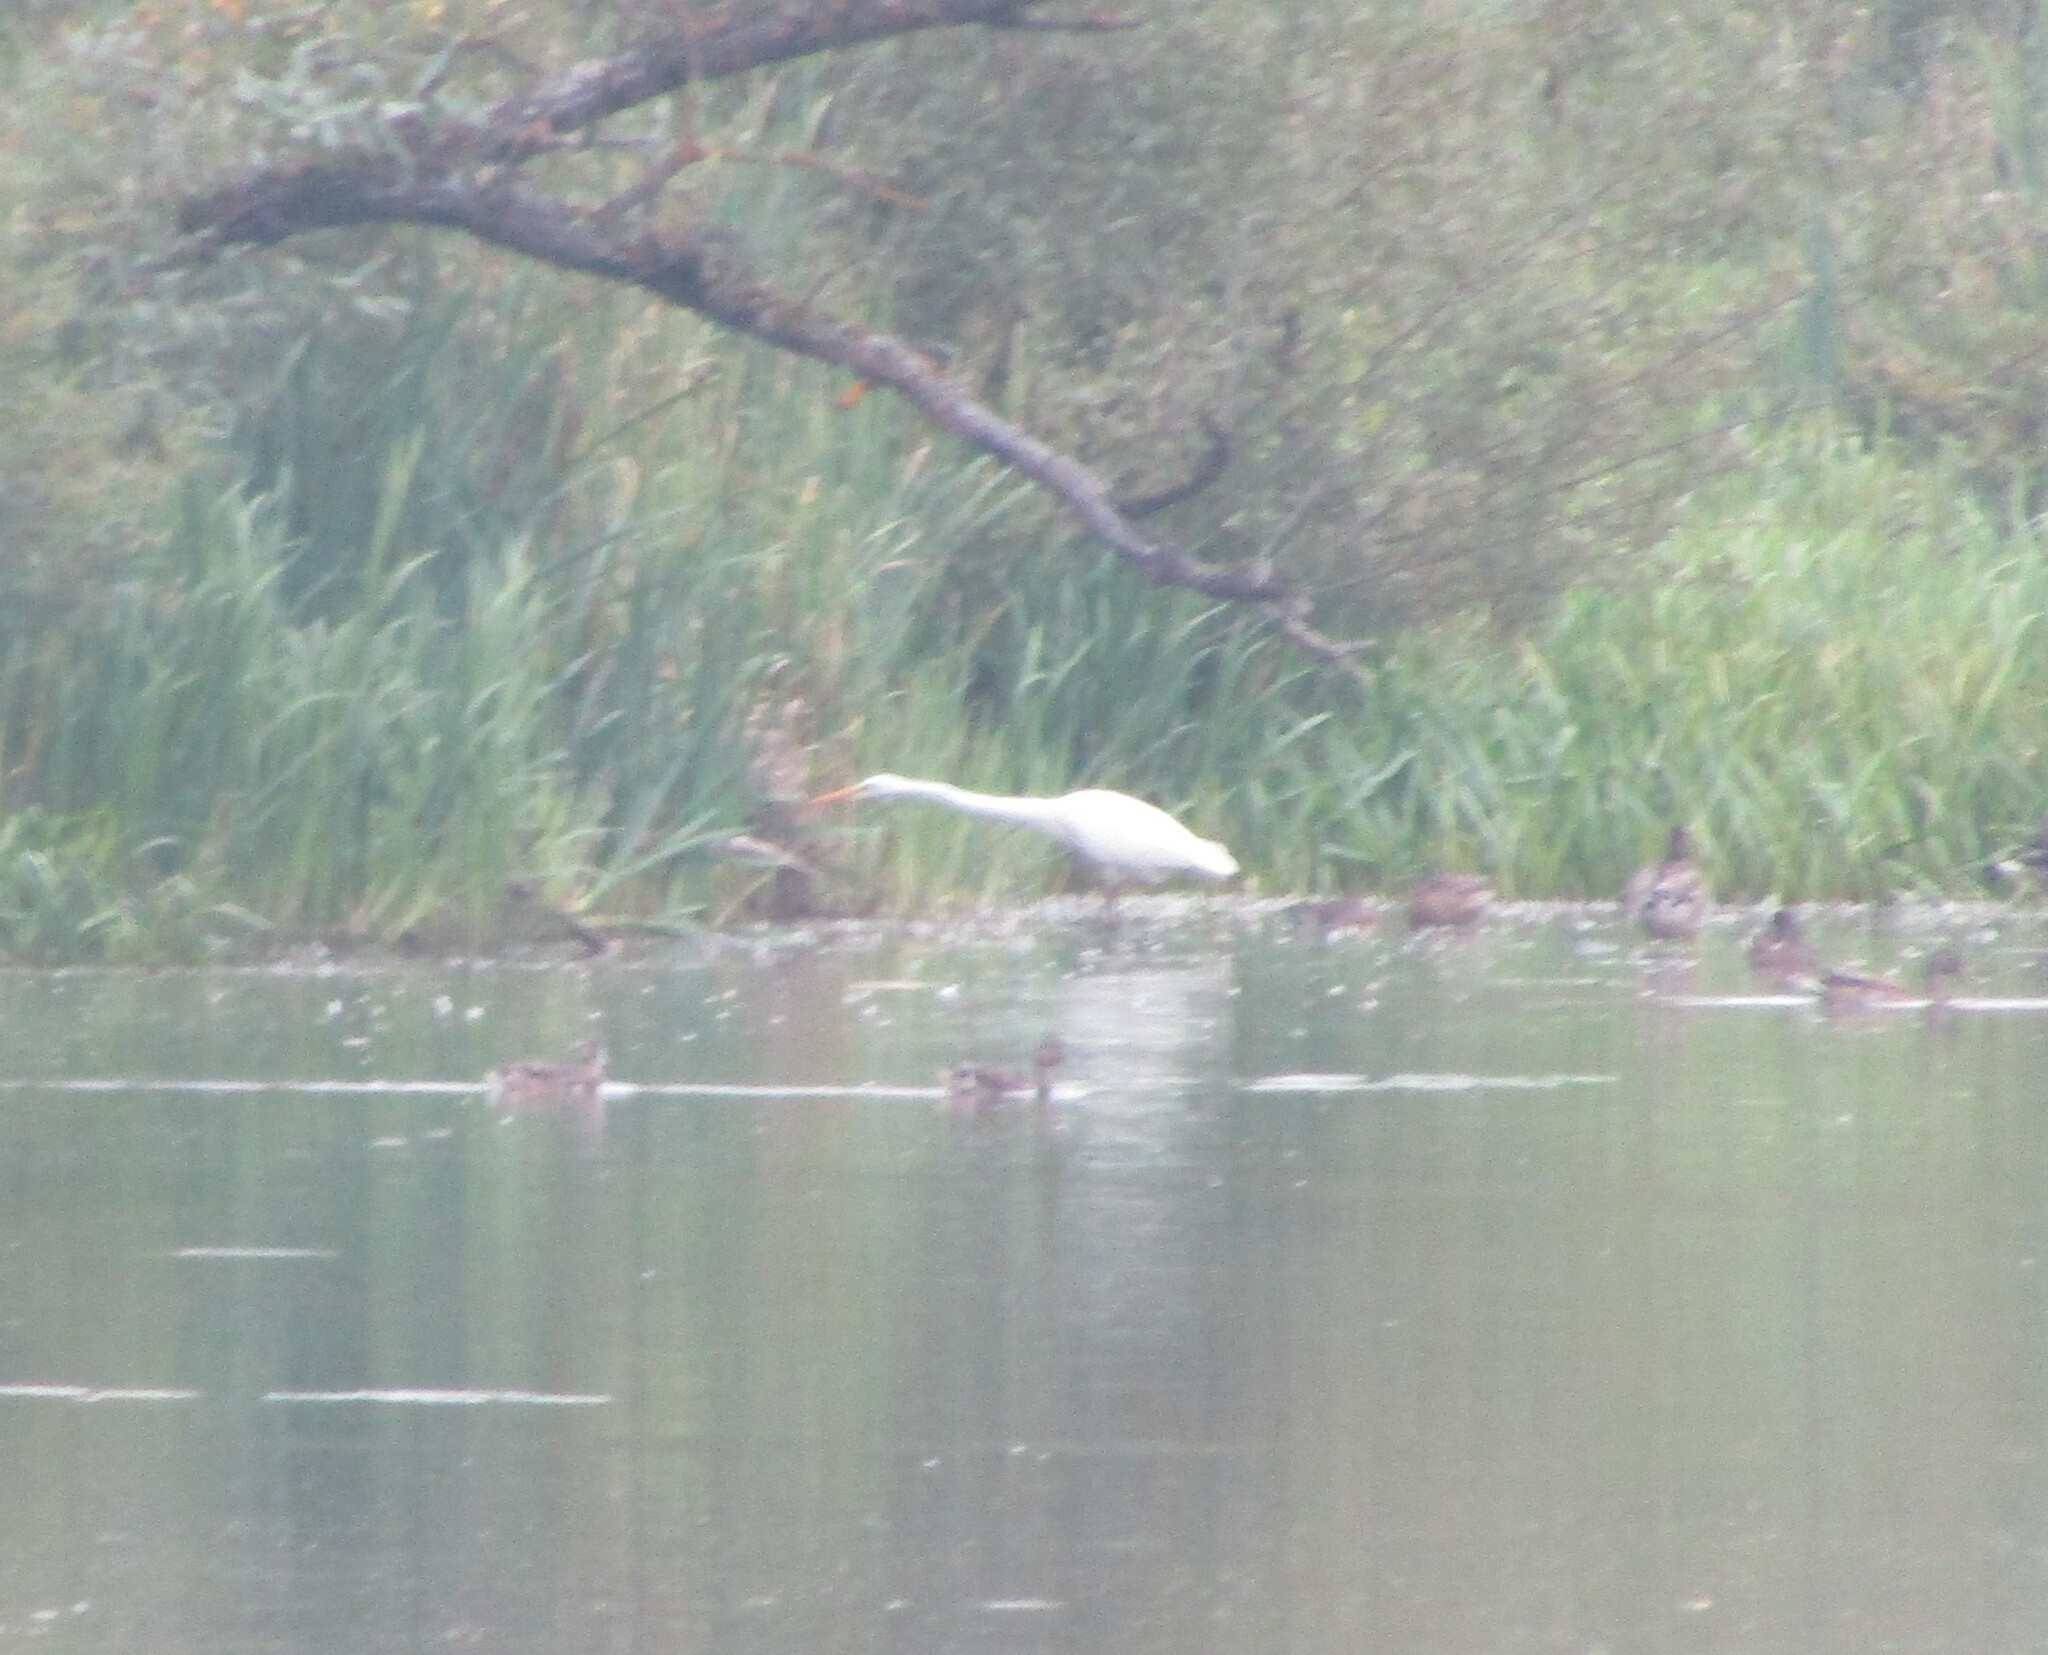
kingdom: Animalia
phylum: Chordata
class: Aves
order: Pelecaniformes
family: Ardeidae
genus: Ardea
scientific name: Ardea alba
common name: Great egret
